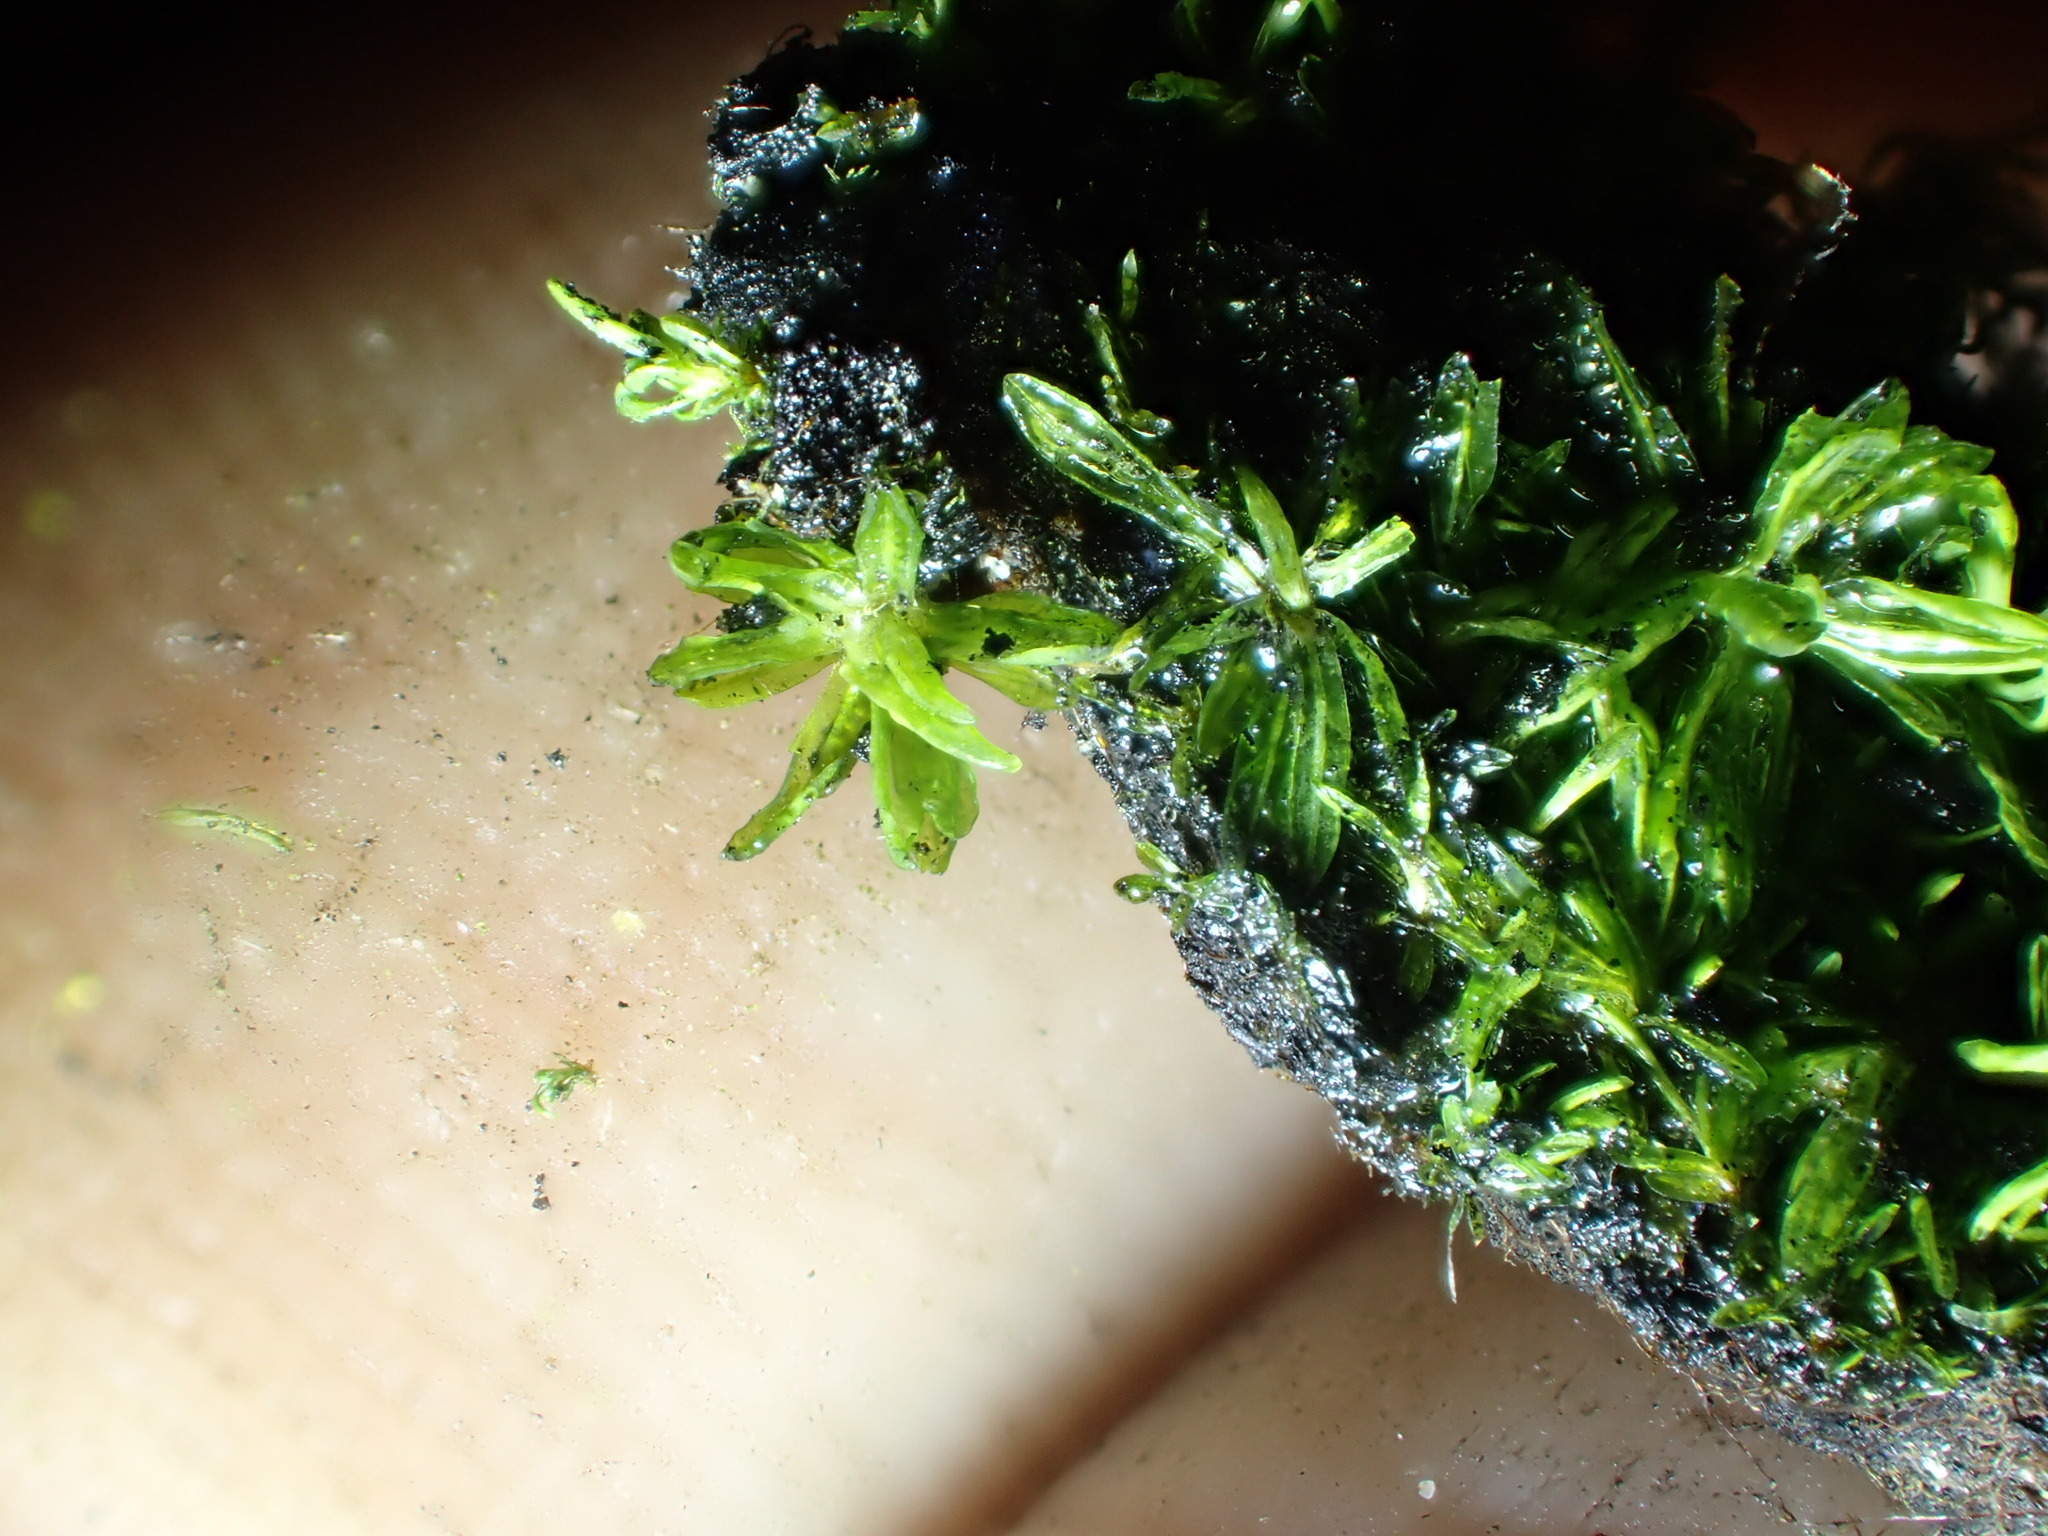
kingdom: Plantae
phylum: Bryophyta
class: Bryopsida
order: Pottiales
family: Pottiaceae
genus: Calymperastrum
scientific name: Calymperastrum latifolium
